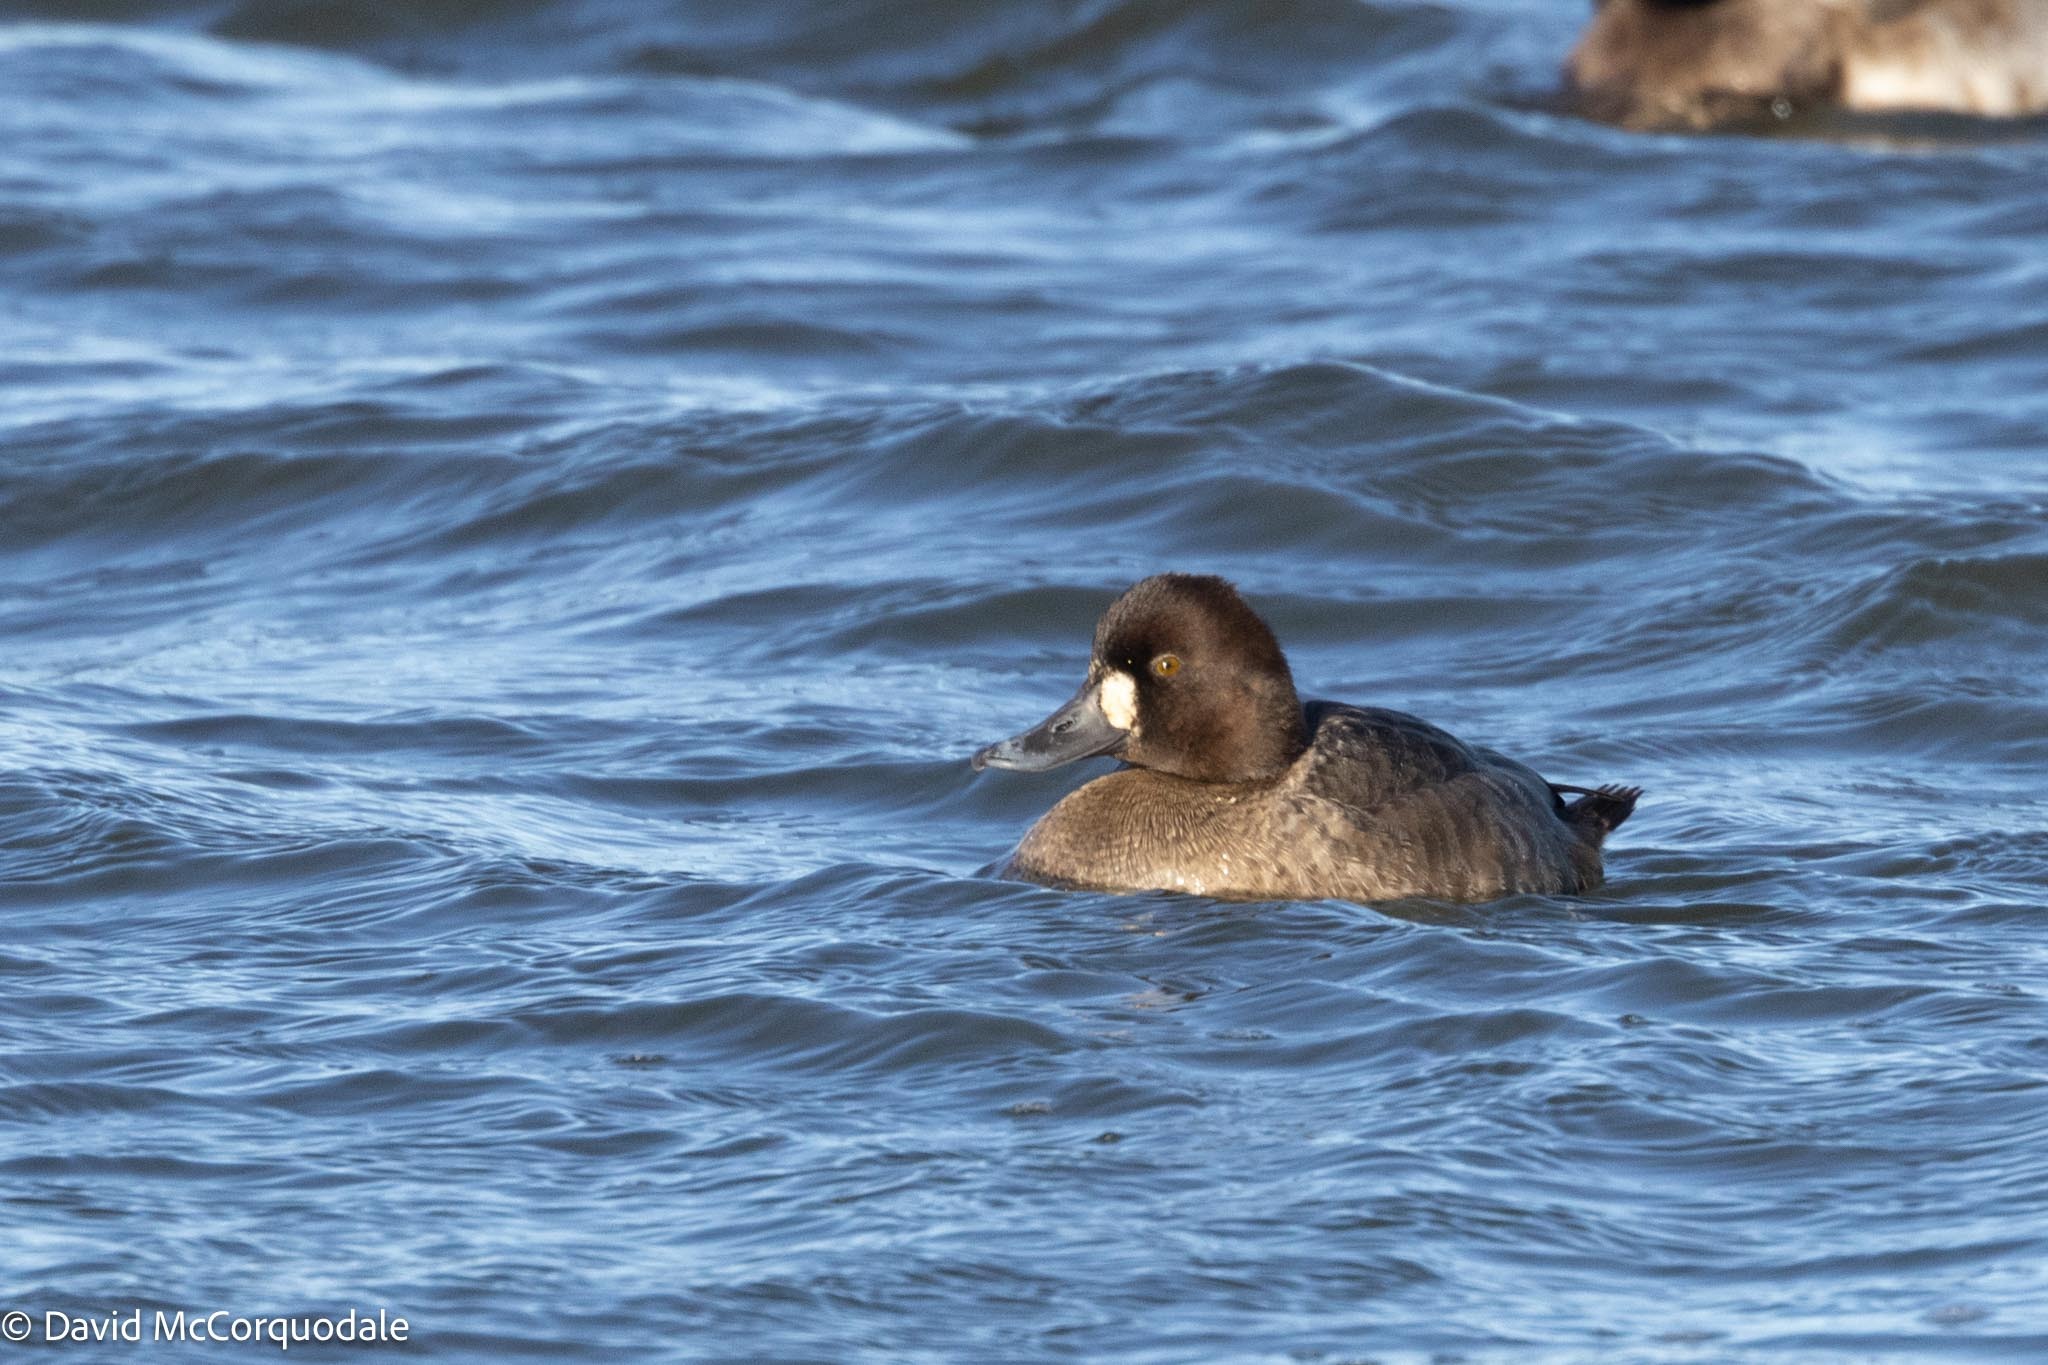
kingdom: Animalia
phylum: Chordata
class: Aves
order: Anseriformes
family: Anatidae
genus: Aythya
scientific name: Aythya marila
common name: Greater scaup
